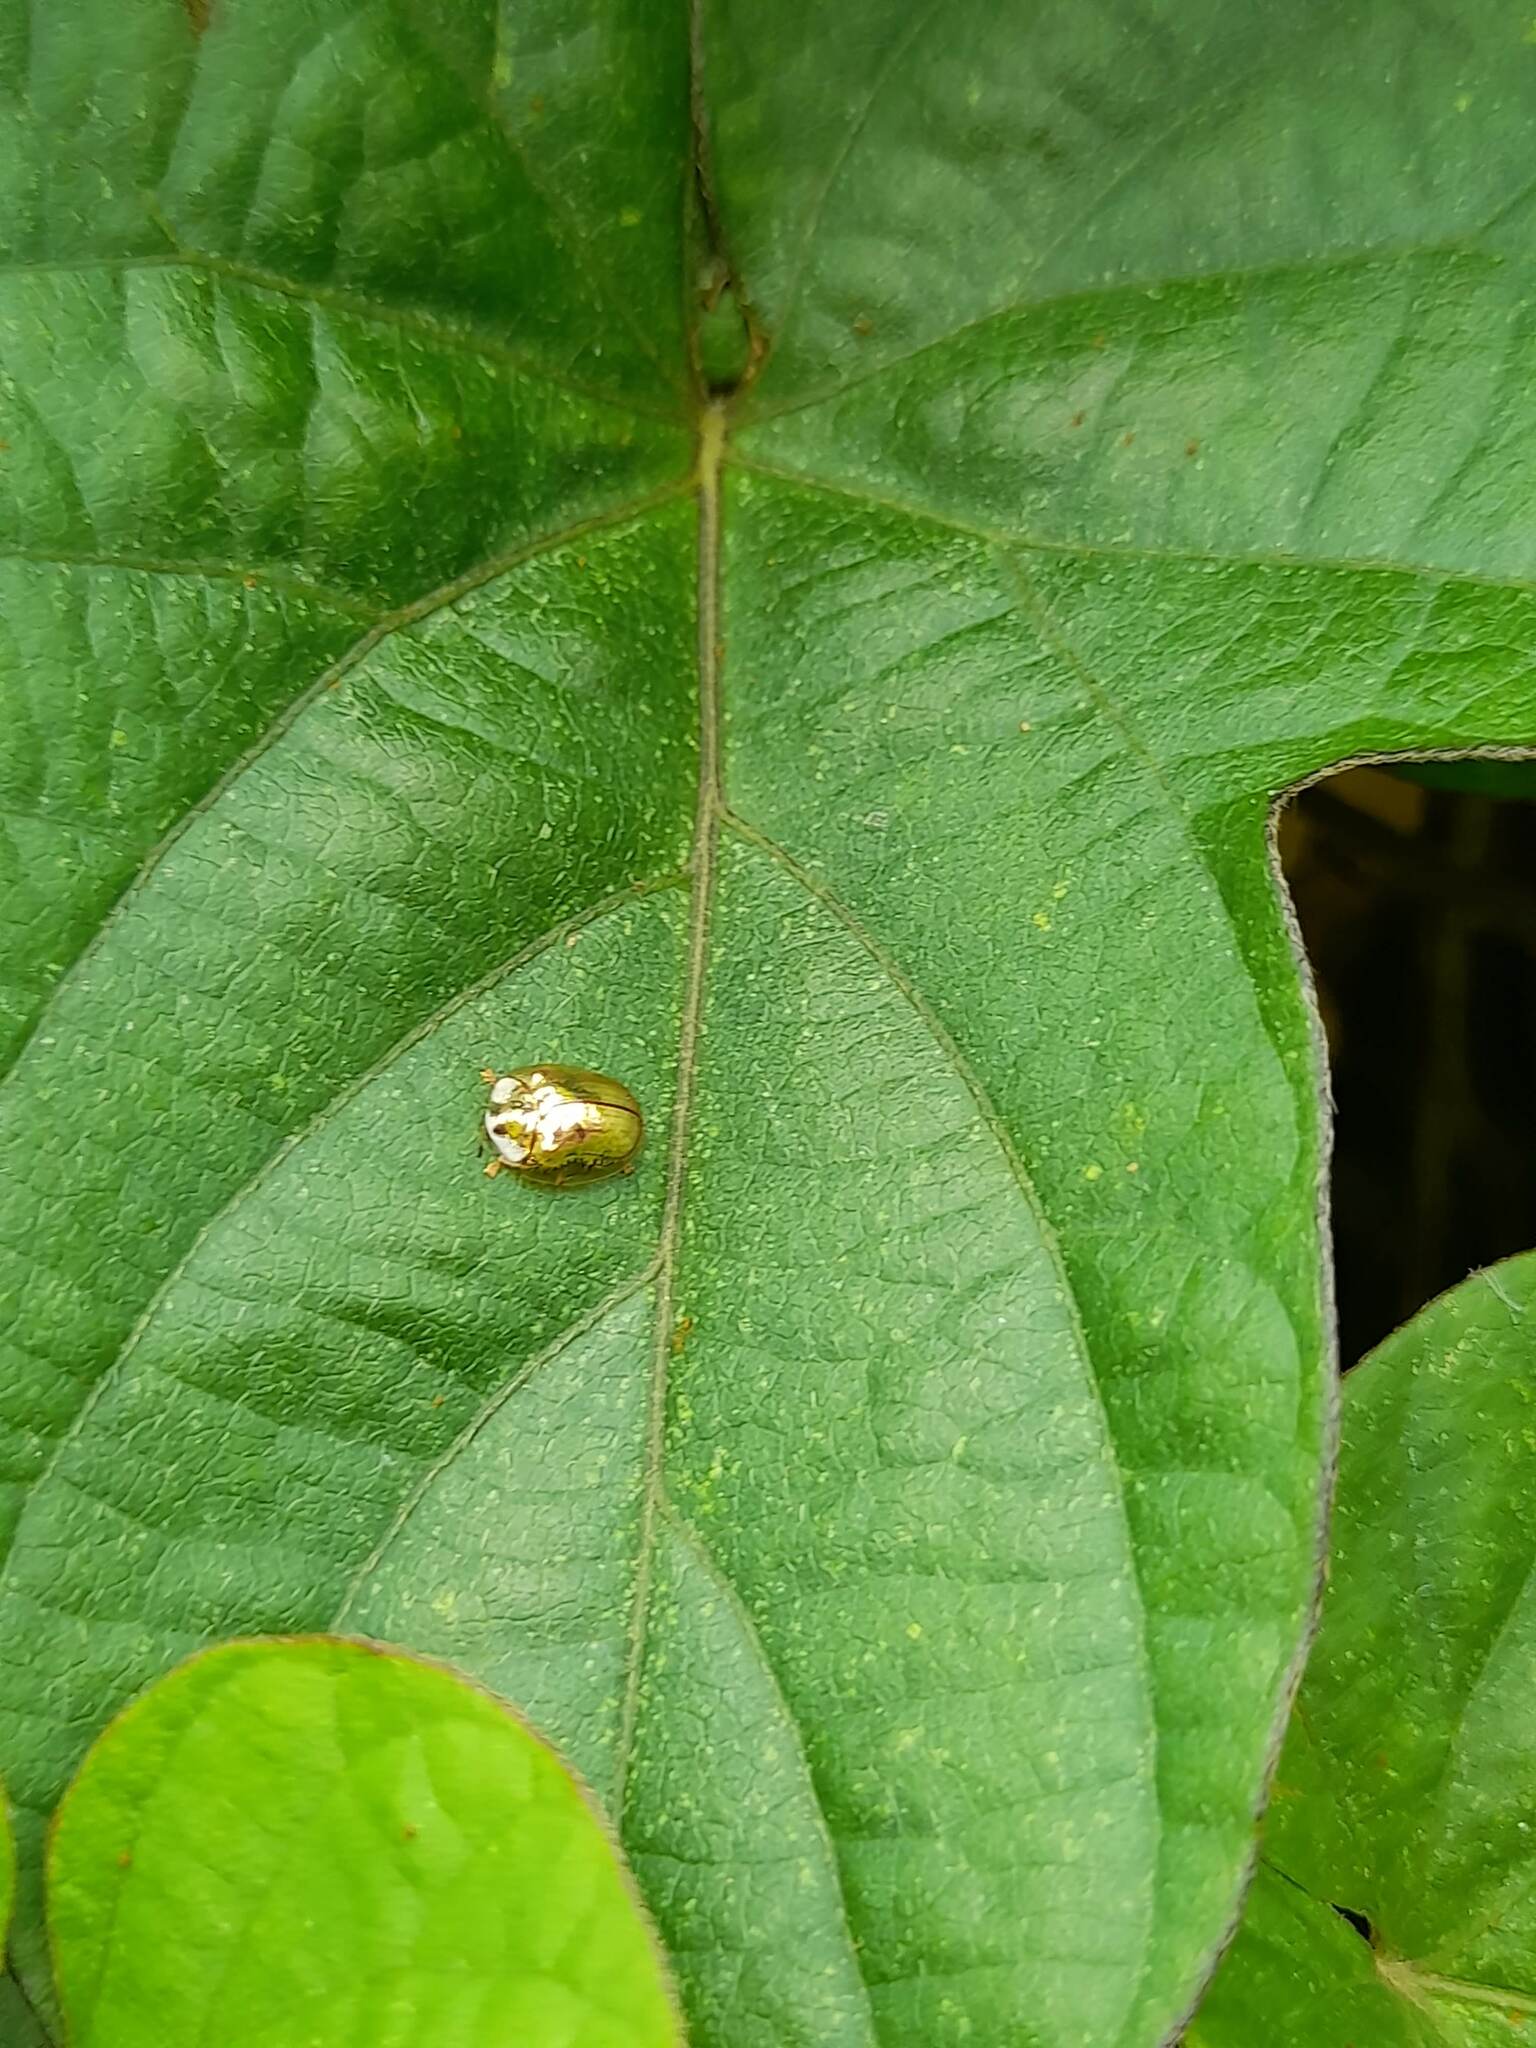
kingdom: Animalia
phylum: Arthropoda
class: Insecta
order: Coleoptera
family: Chrysomelidae
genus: Charidotella
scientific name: Charidotella sexpunctata
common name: Golden tortoise beetle
